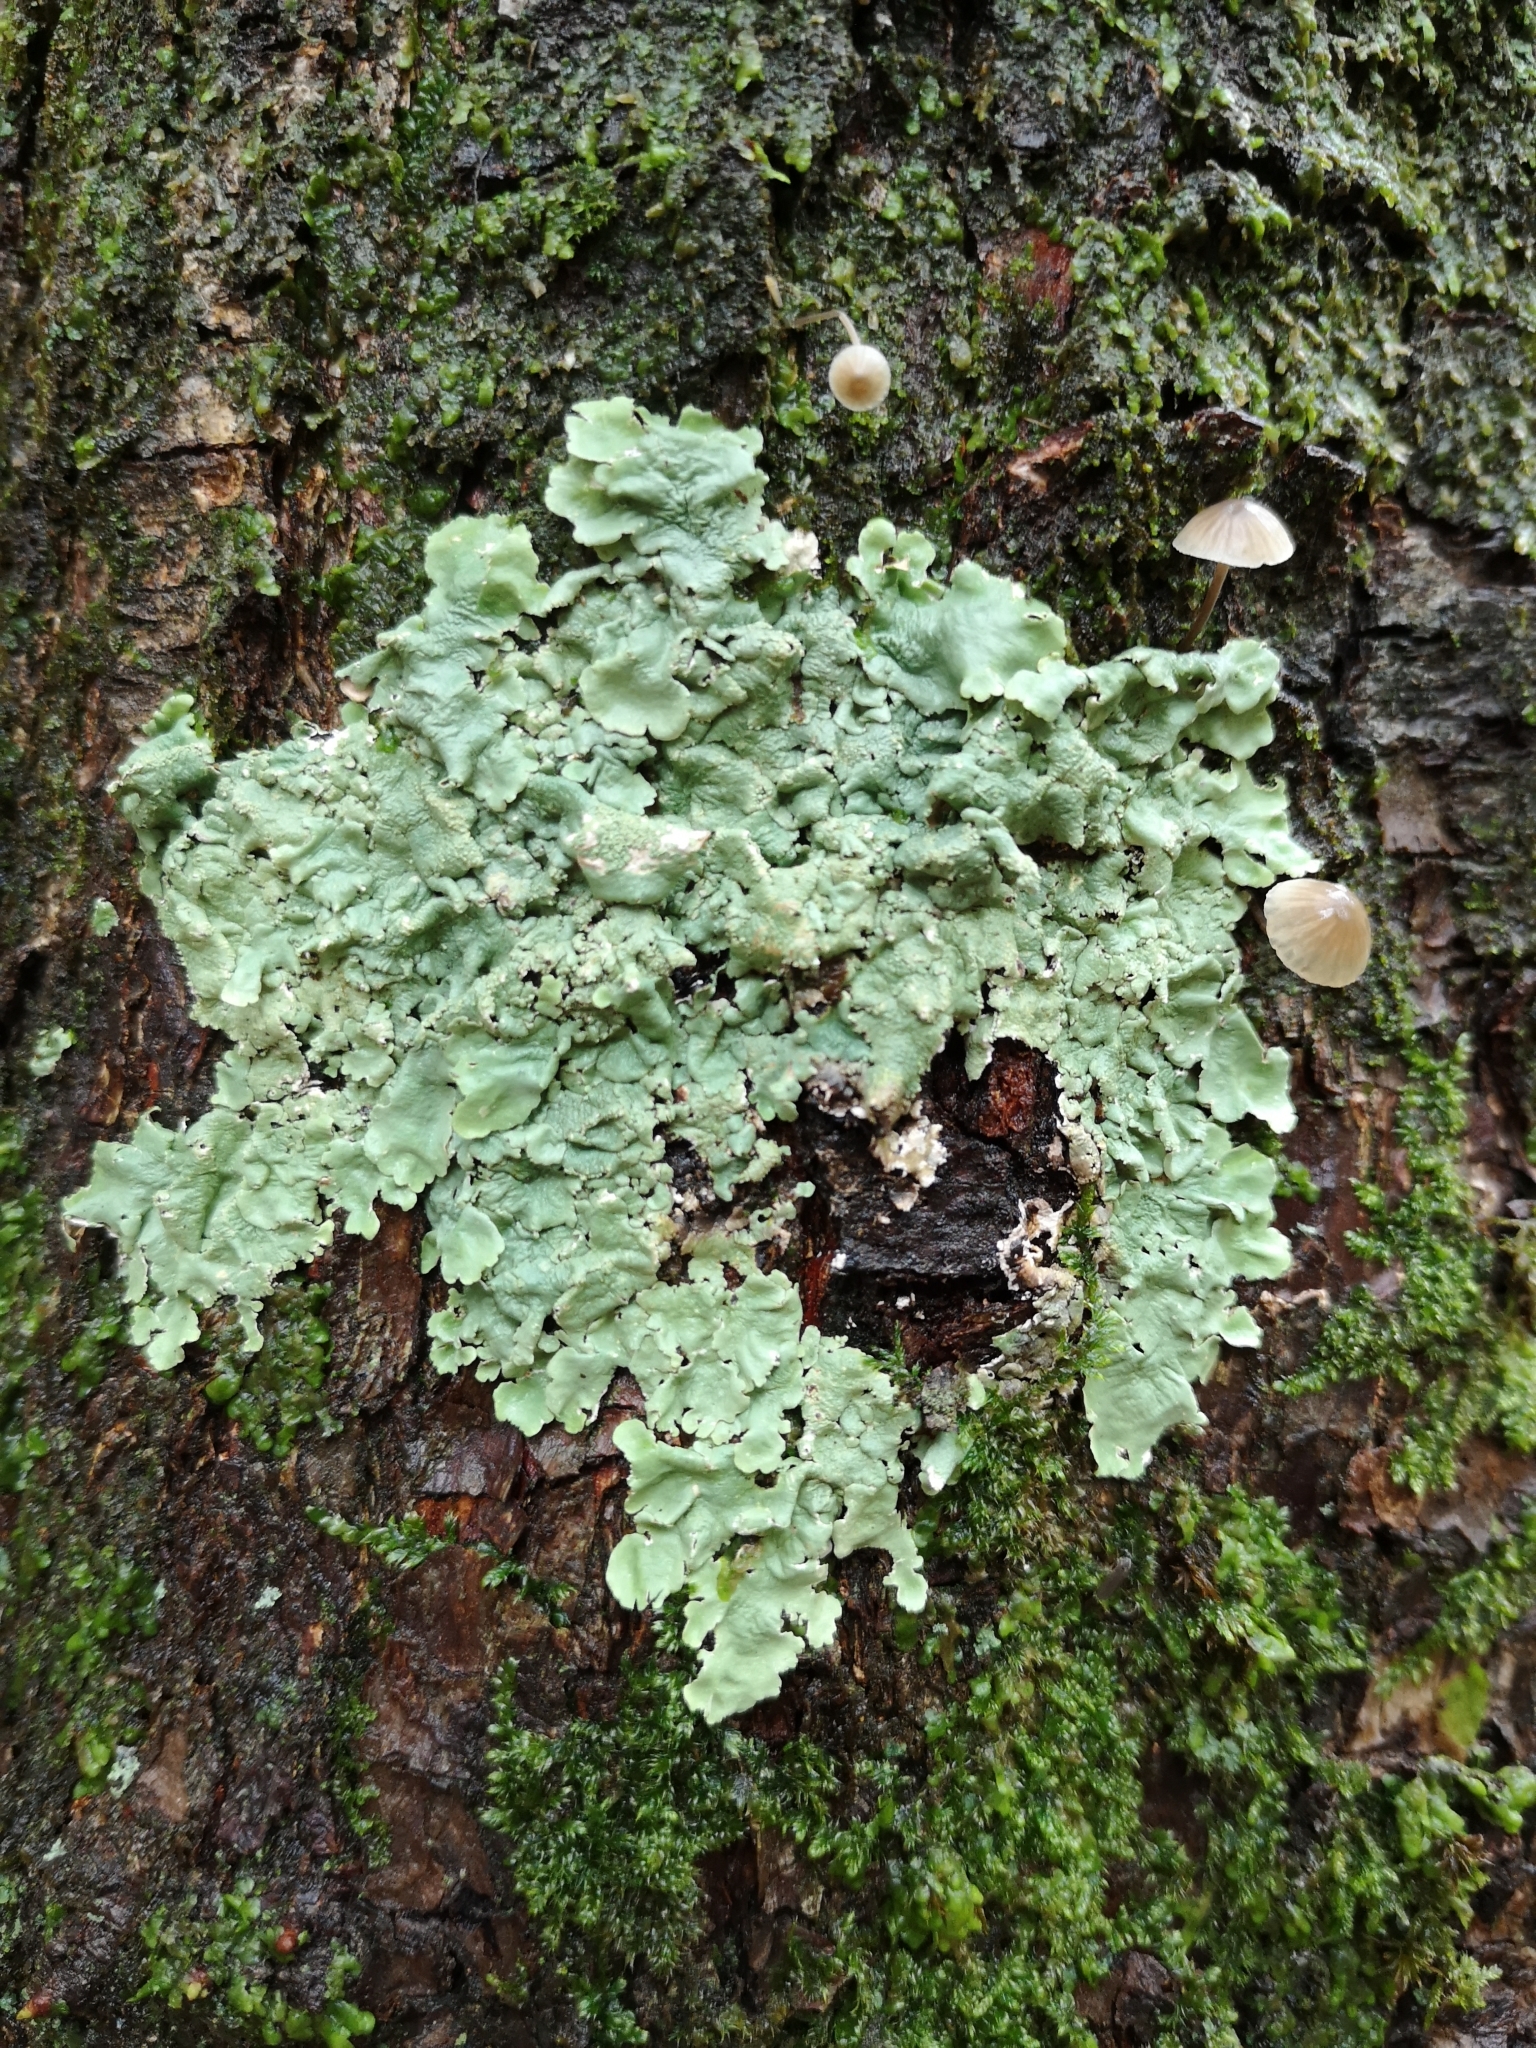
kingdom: Fungi
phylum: Ascomycota
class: Lecanoromycetes
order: Lecanorales
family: Parmeliaceae
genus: Flavoparmelia
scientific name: Flavoparmelia caperata
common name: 40-mile per hour lichen
